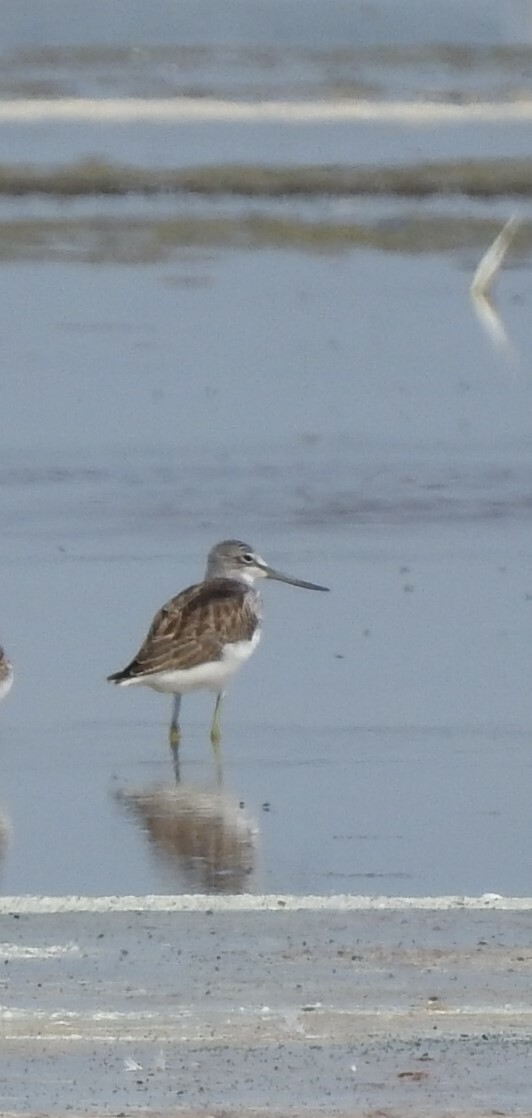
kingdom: Animalia
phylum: Chordata
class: Aves
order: Charadriiformes
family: Scolopacidae
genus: Tringa
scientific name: Tringa nebularia
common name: Common greenshank
